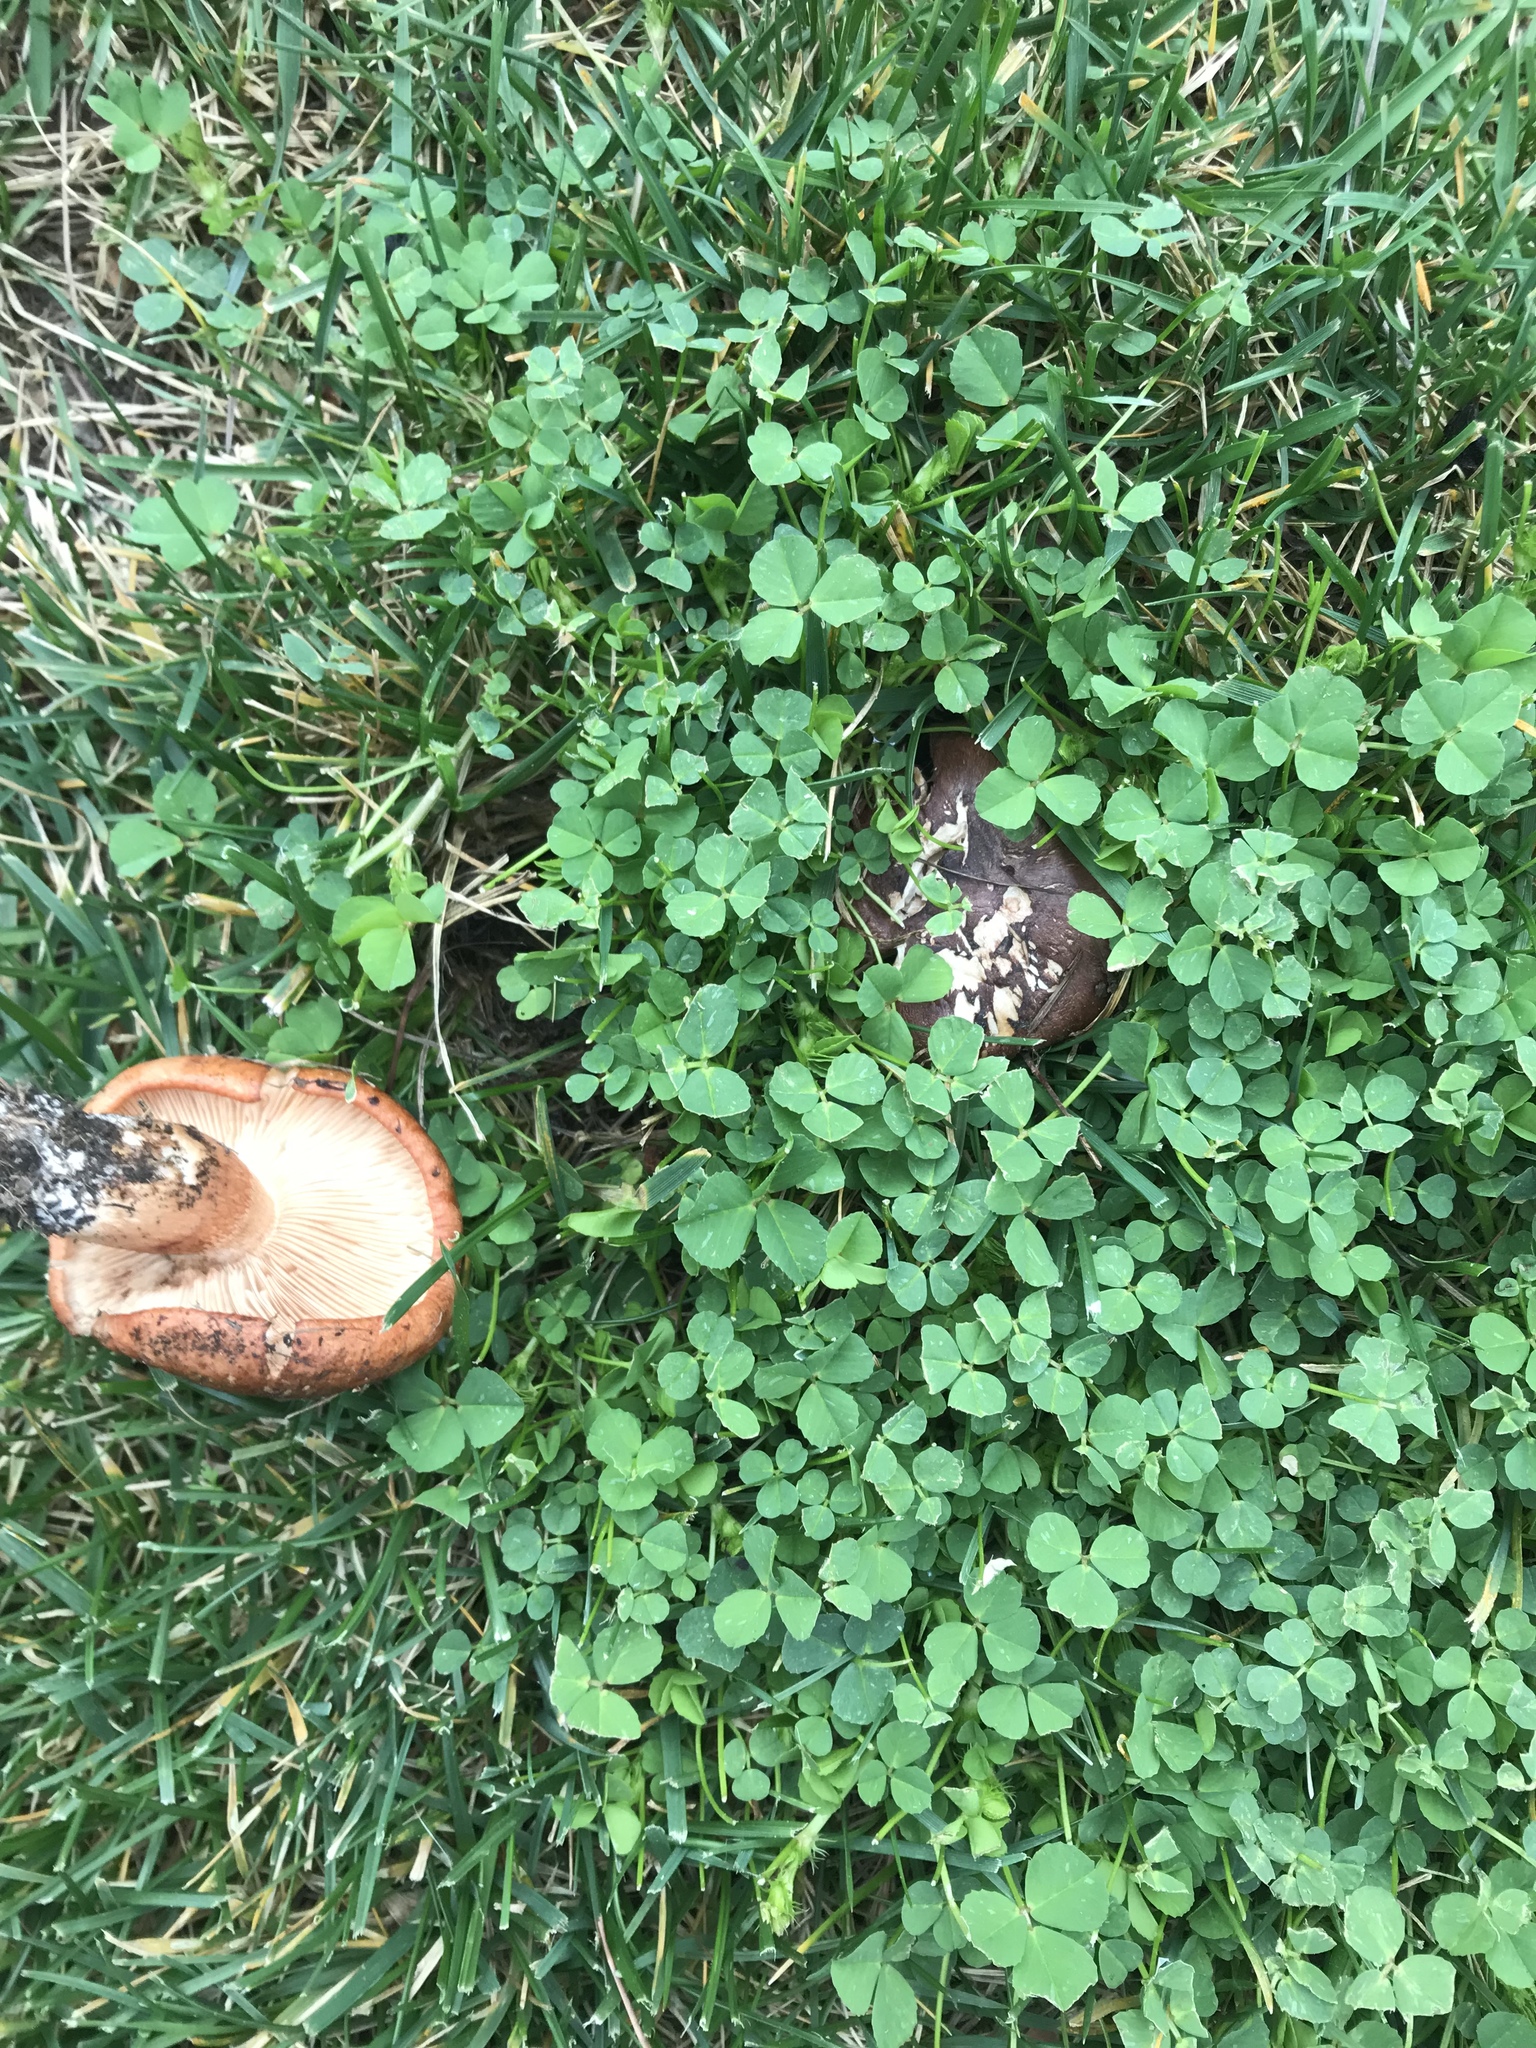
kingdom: Fungi
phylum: Basidiomycota
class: Agaricomycetes
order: Agaricales
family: Tricholomataceae
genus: Tricholoma
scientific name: Tricholoma fracticum
